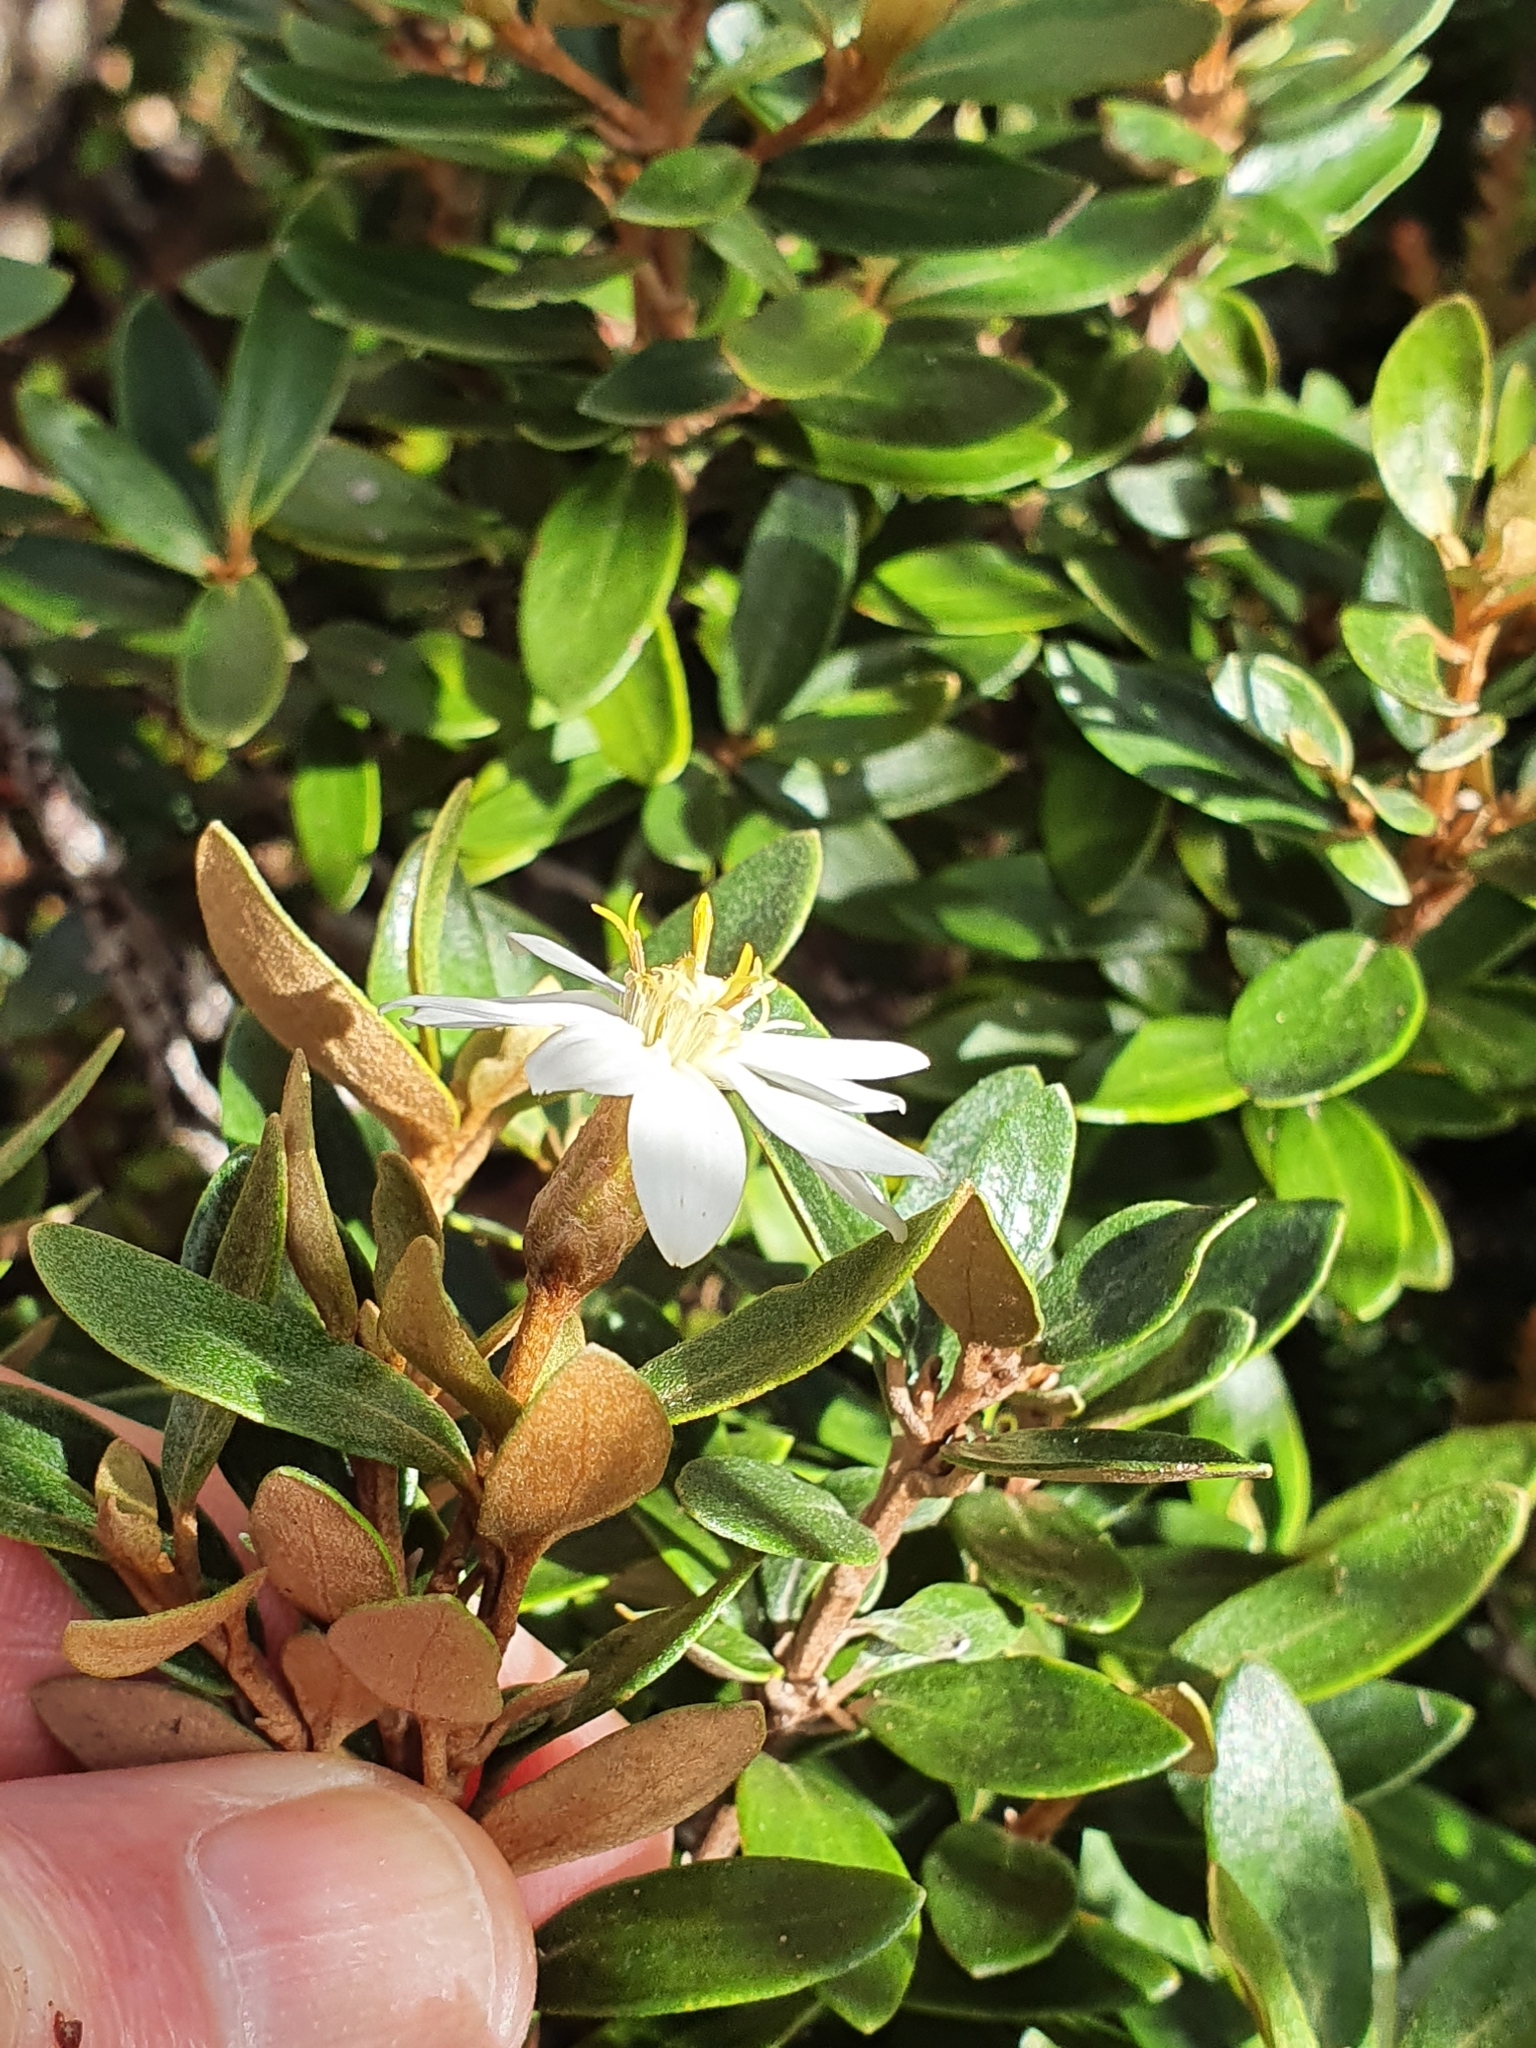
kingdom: Plantae
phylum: Tracheophyta
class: Magnoliopsida
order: Asterales
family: Asteraceae
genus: Olearia
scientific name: Olearia tasmanica
